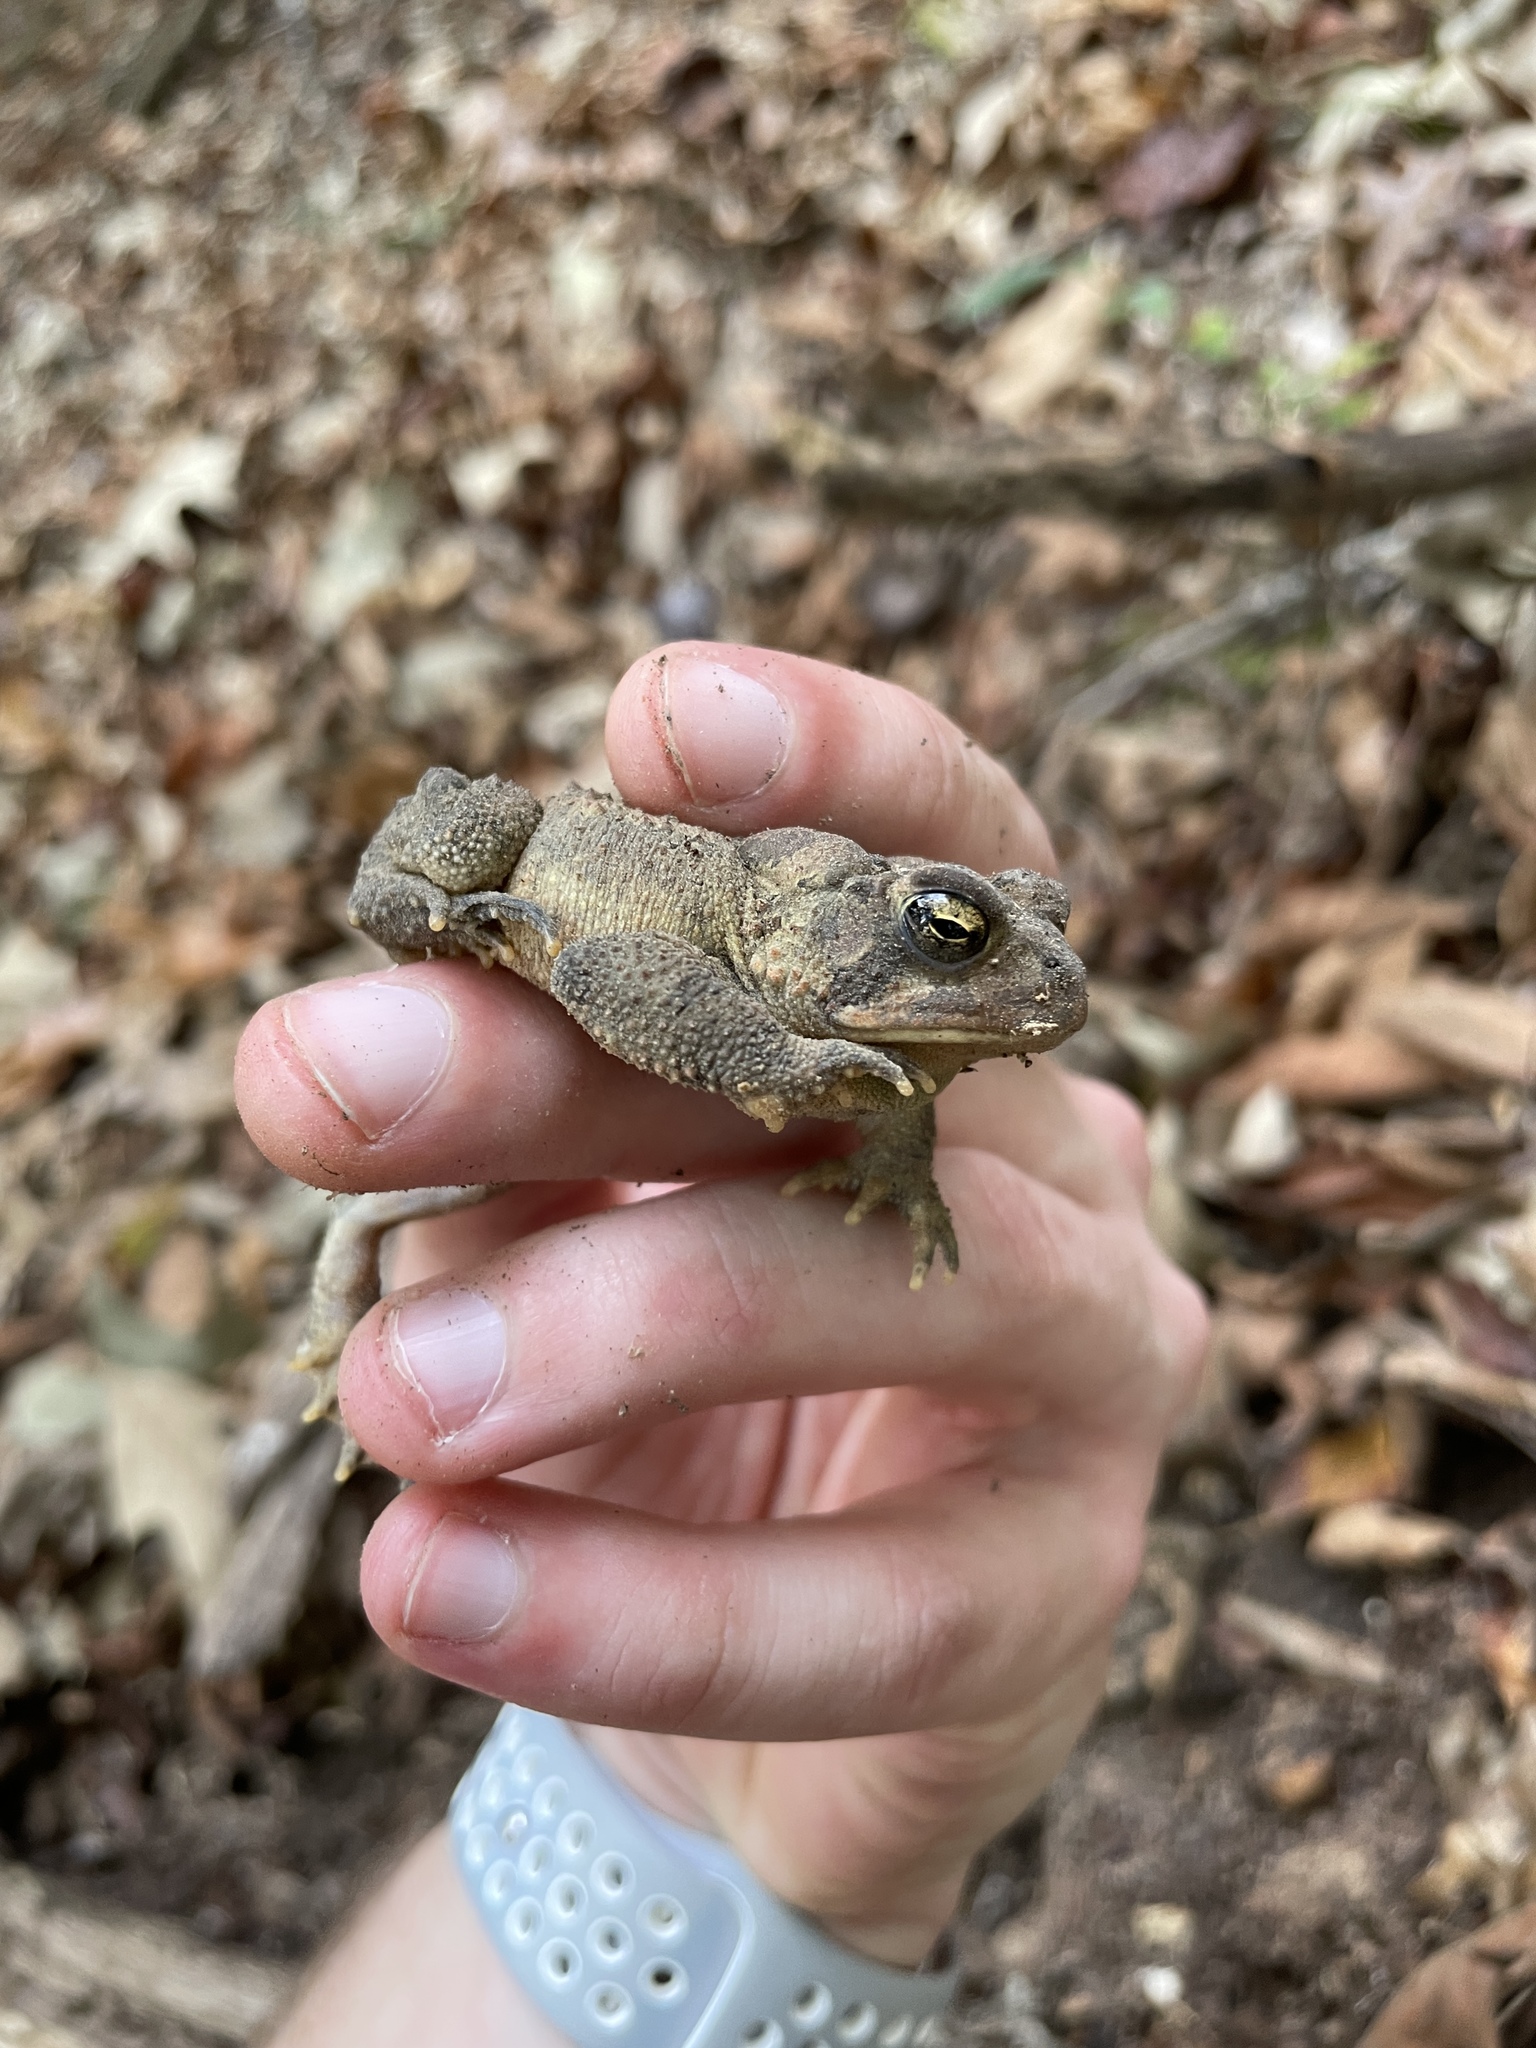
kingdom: Animalia
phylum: Chordata
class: Amphibia
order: Anura
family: Bufonidae
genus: Anaxyrus
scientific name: Anaxyrus fowleri
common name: Fowler's toad
